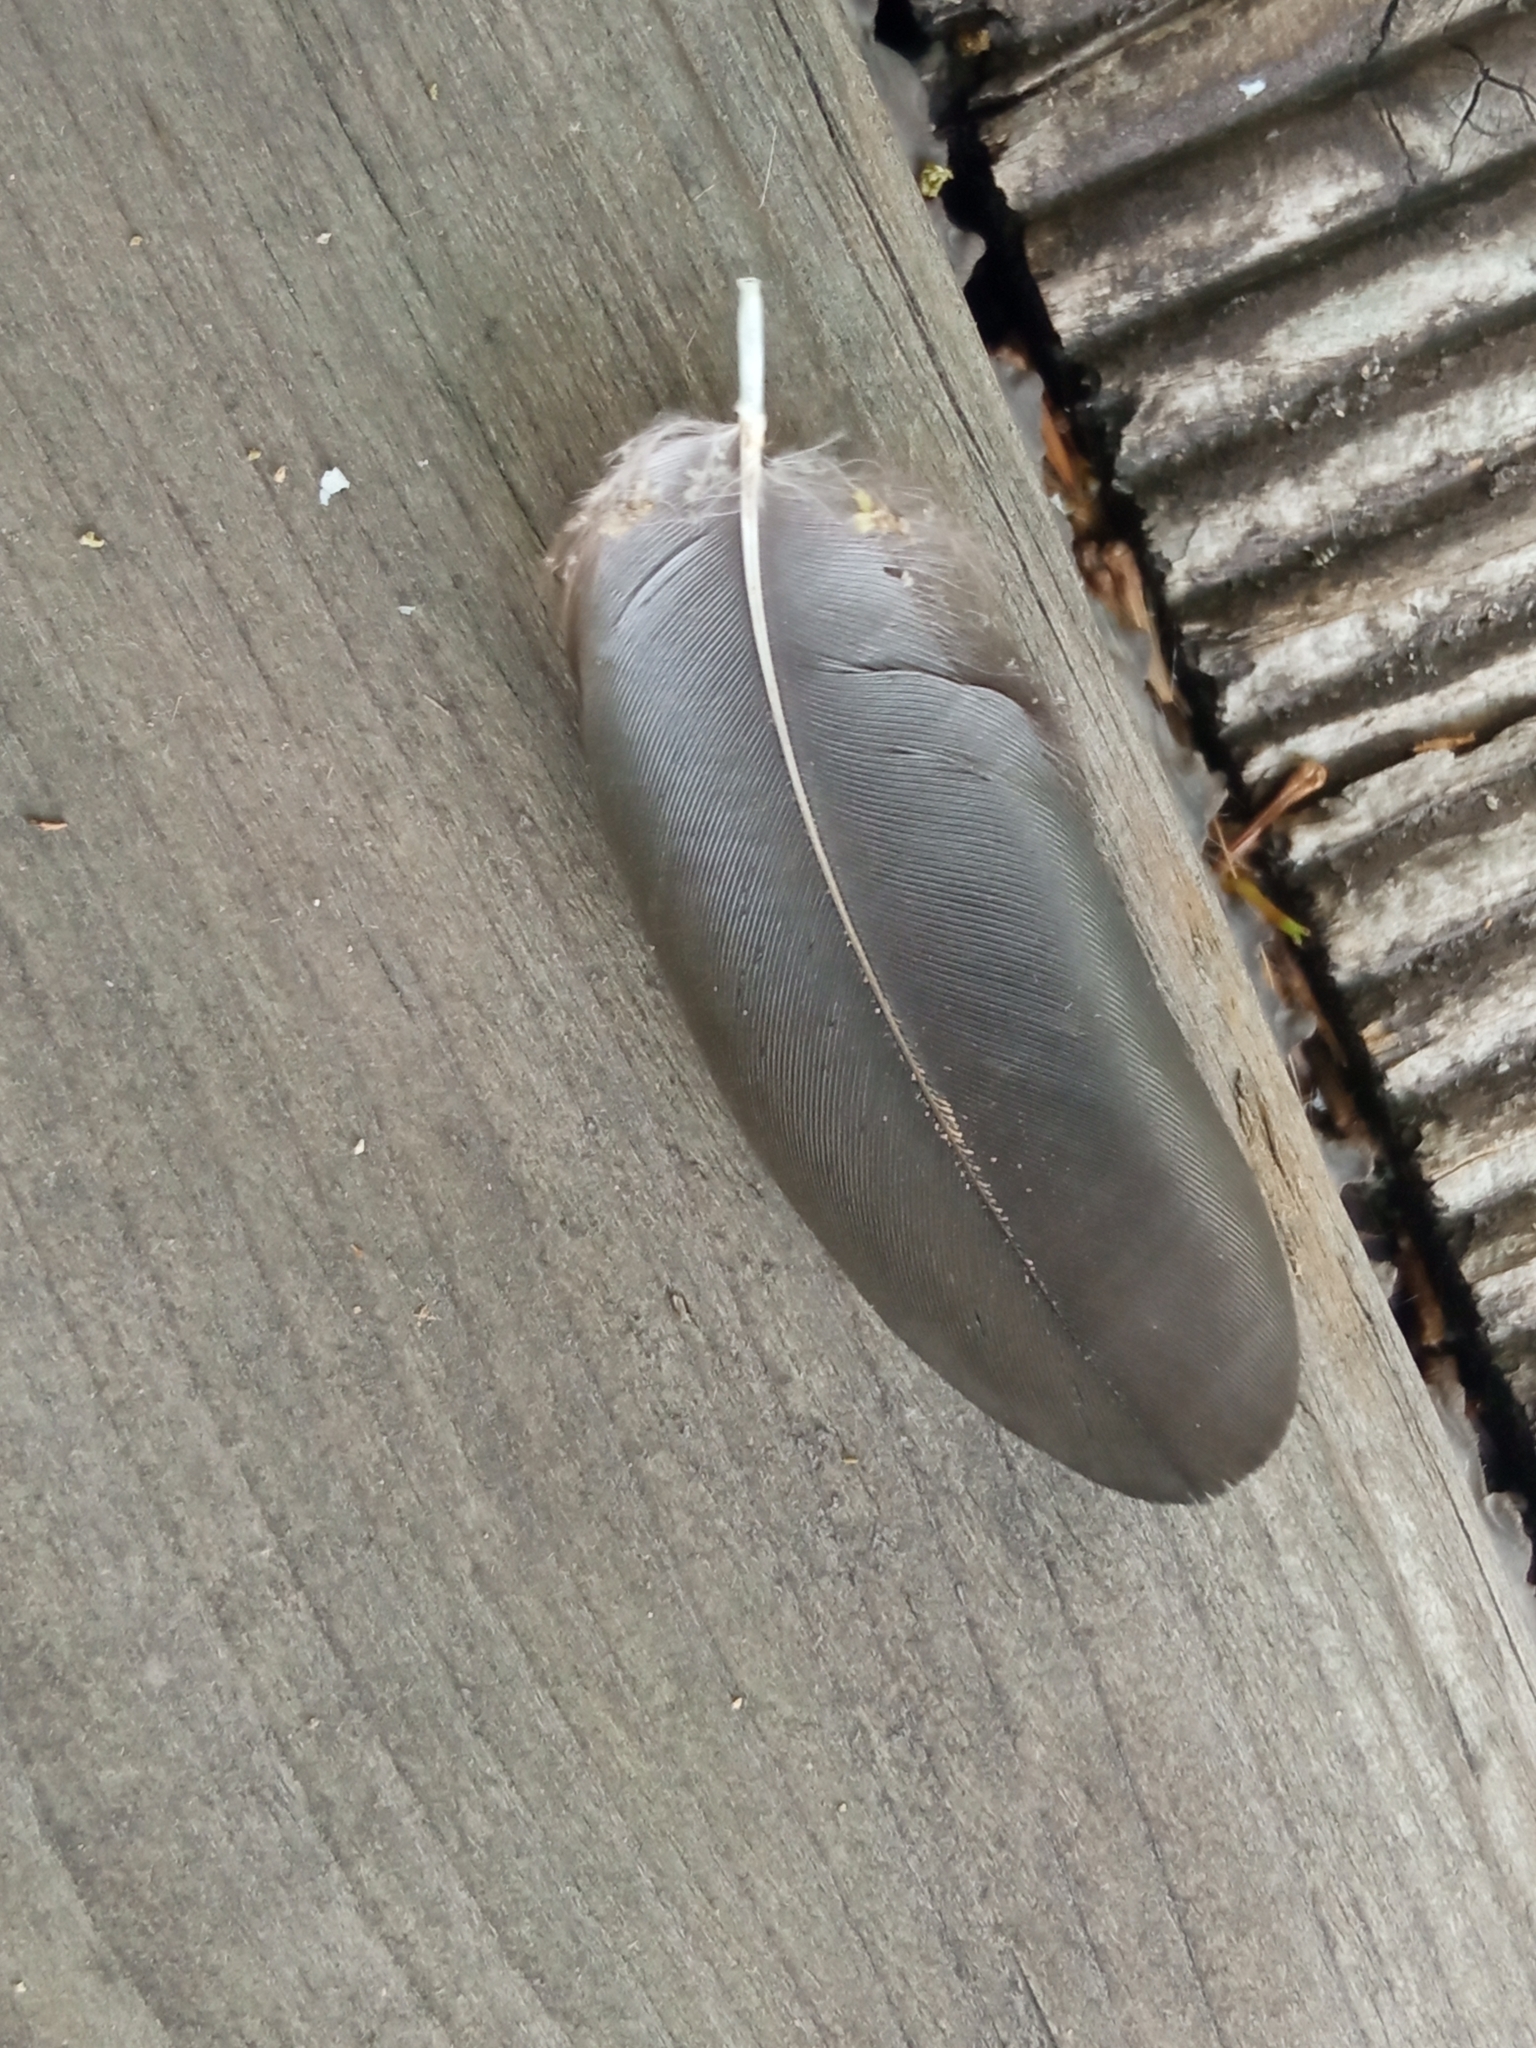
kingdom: Animalia
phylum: Chordata
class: Aves
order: Passeriformes
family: Corvidae
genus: Pica
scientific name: Pica serica
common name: Oriental magpie
